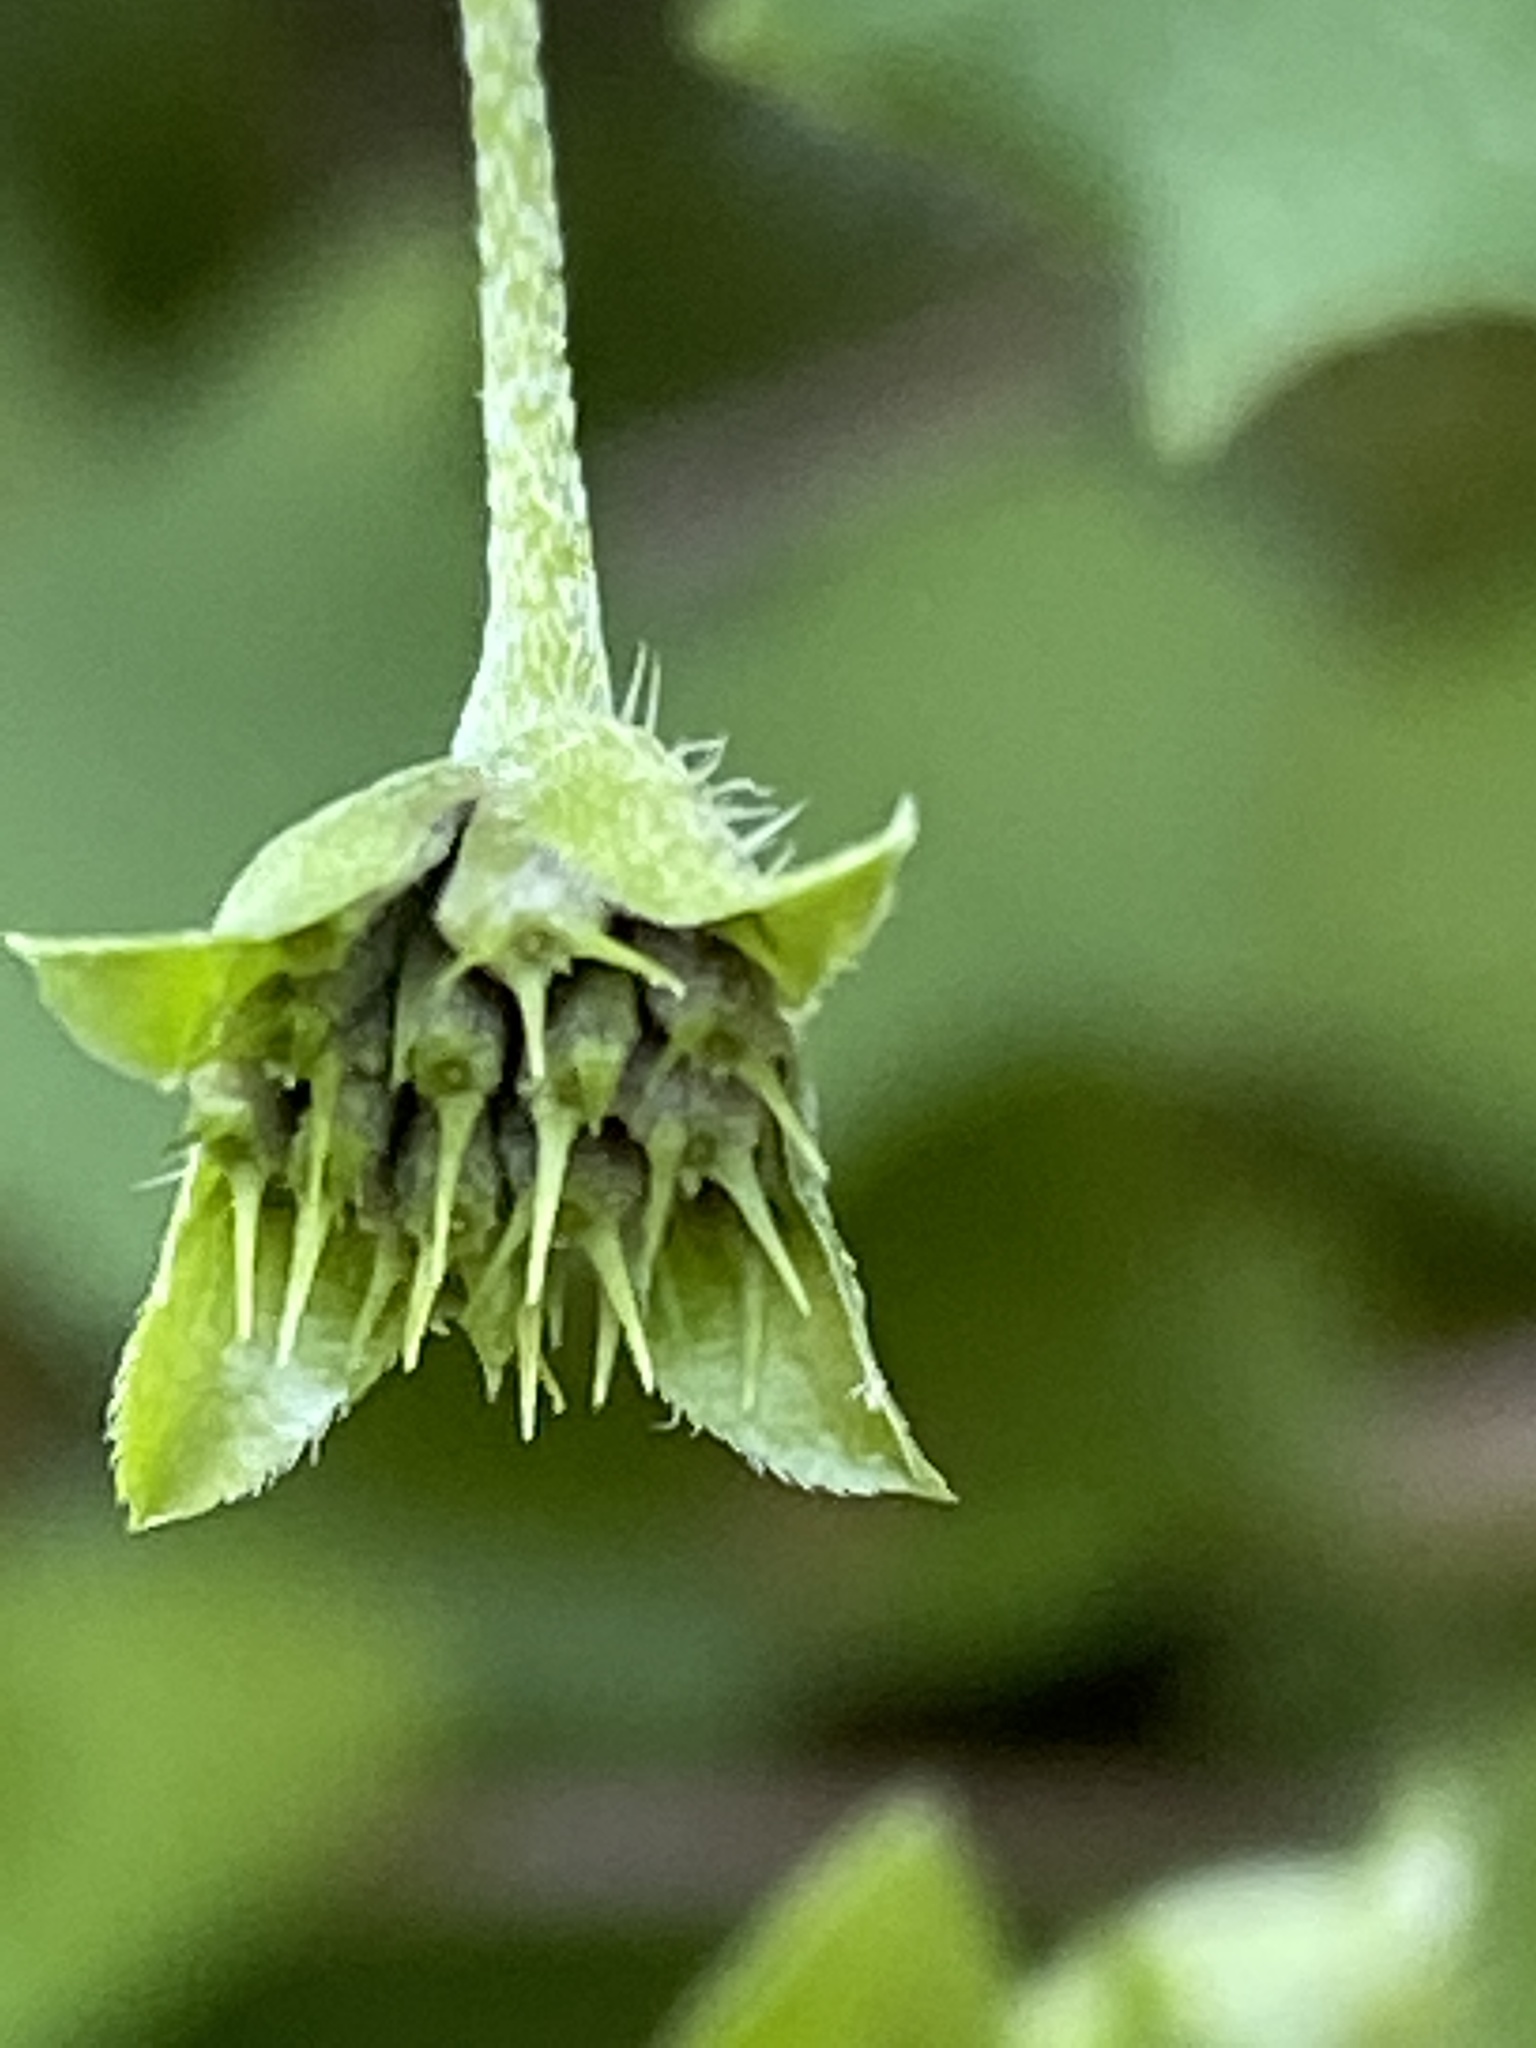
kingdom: Plantae
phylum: Tracheophyta
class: Magnoliopsida
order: Asterales
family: Asteraceae
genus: Calyptocarpus
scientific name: Calyptocarpus vialis
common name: Straggler daisy
